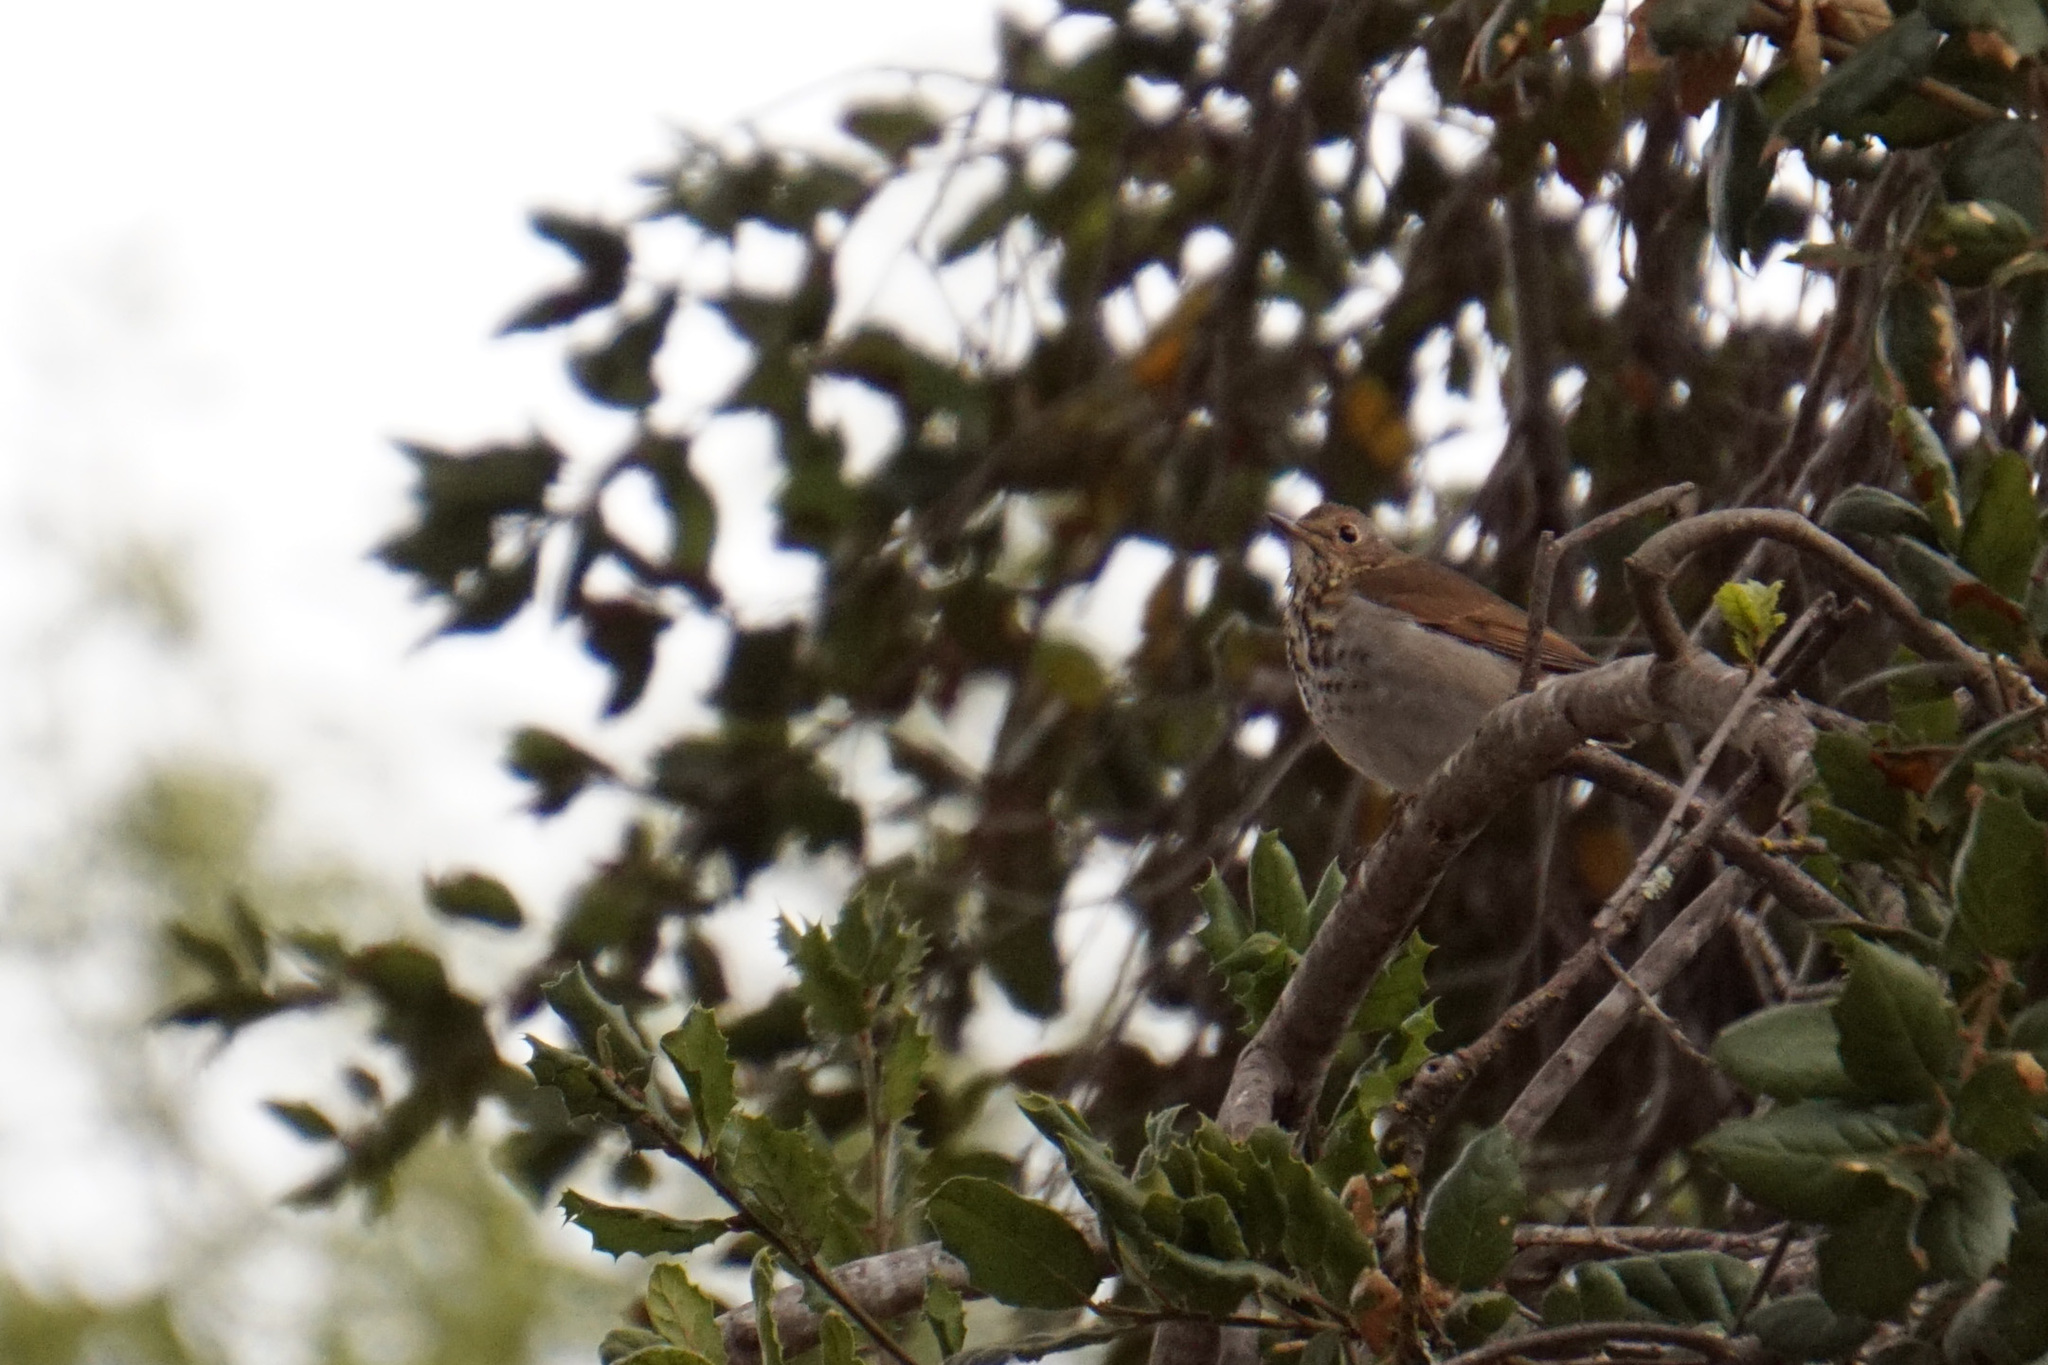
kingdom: Animalia
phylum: Chordata
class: Aves
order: Passeriformes
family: Turdidae
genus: Catharus
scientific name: Catharus guttatus
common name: Hermit thrush
